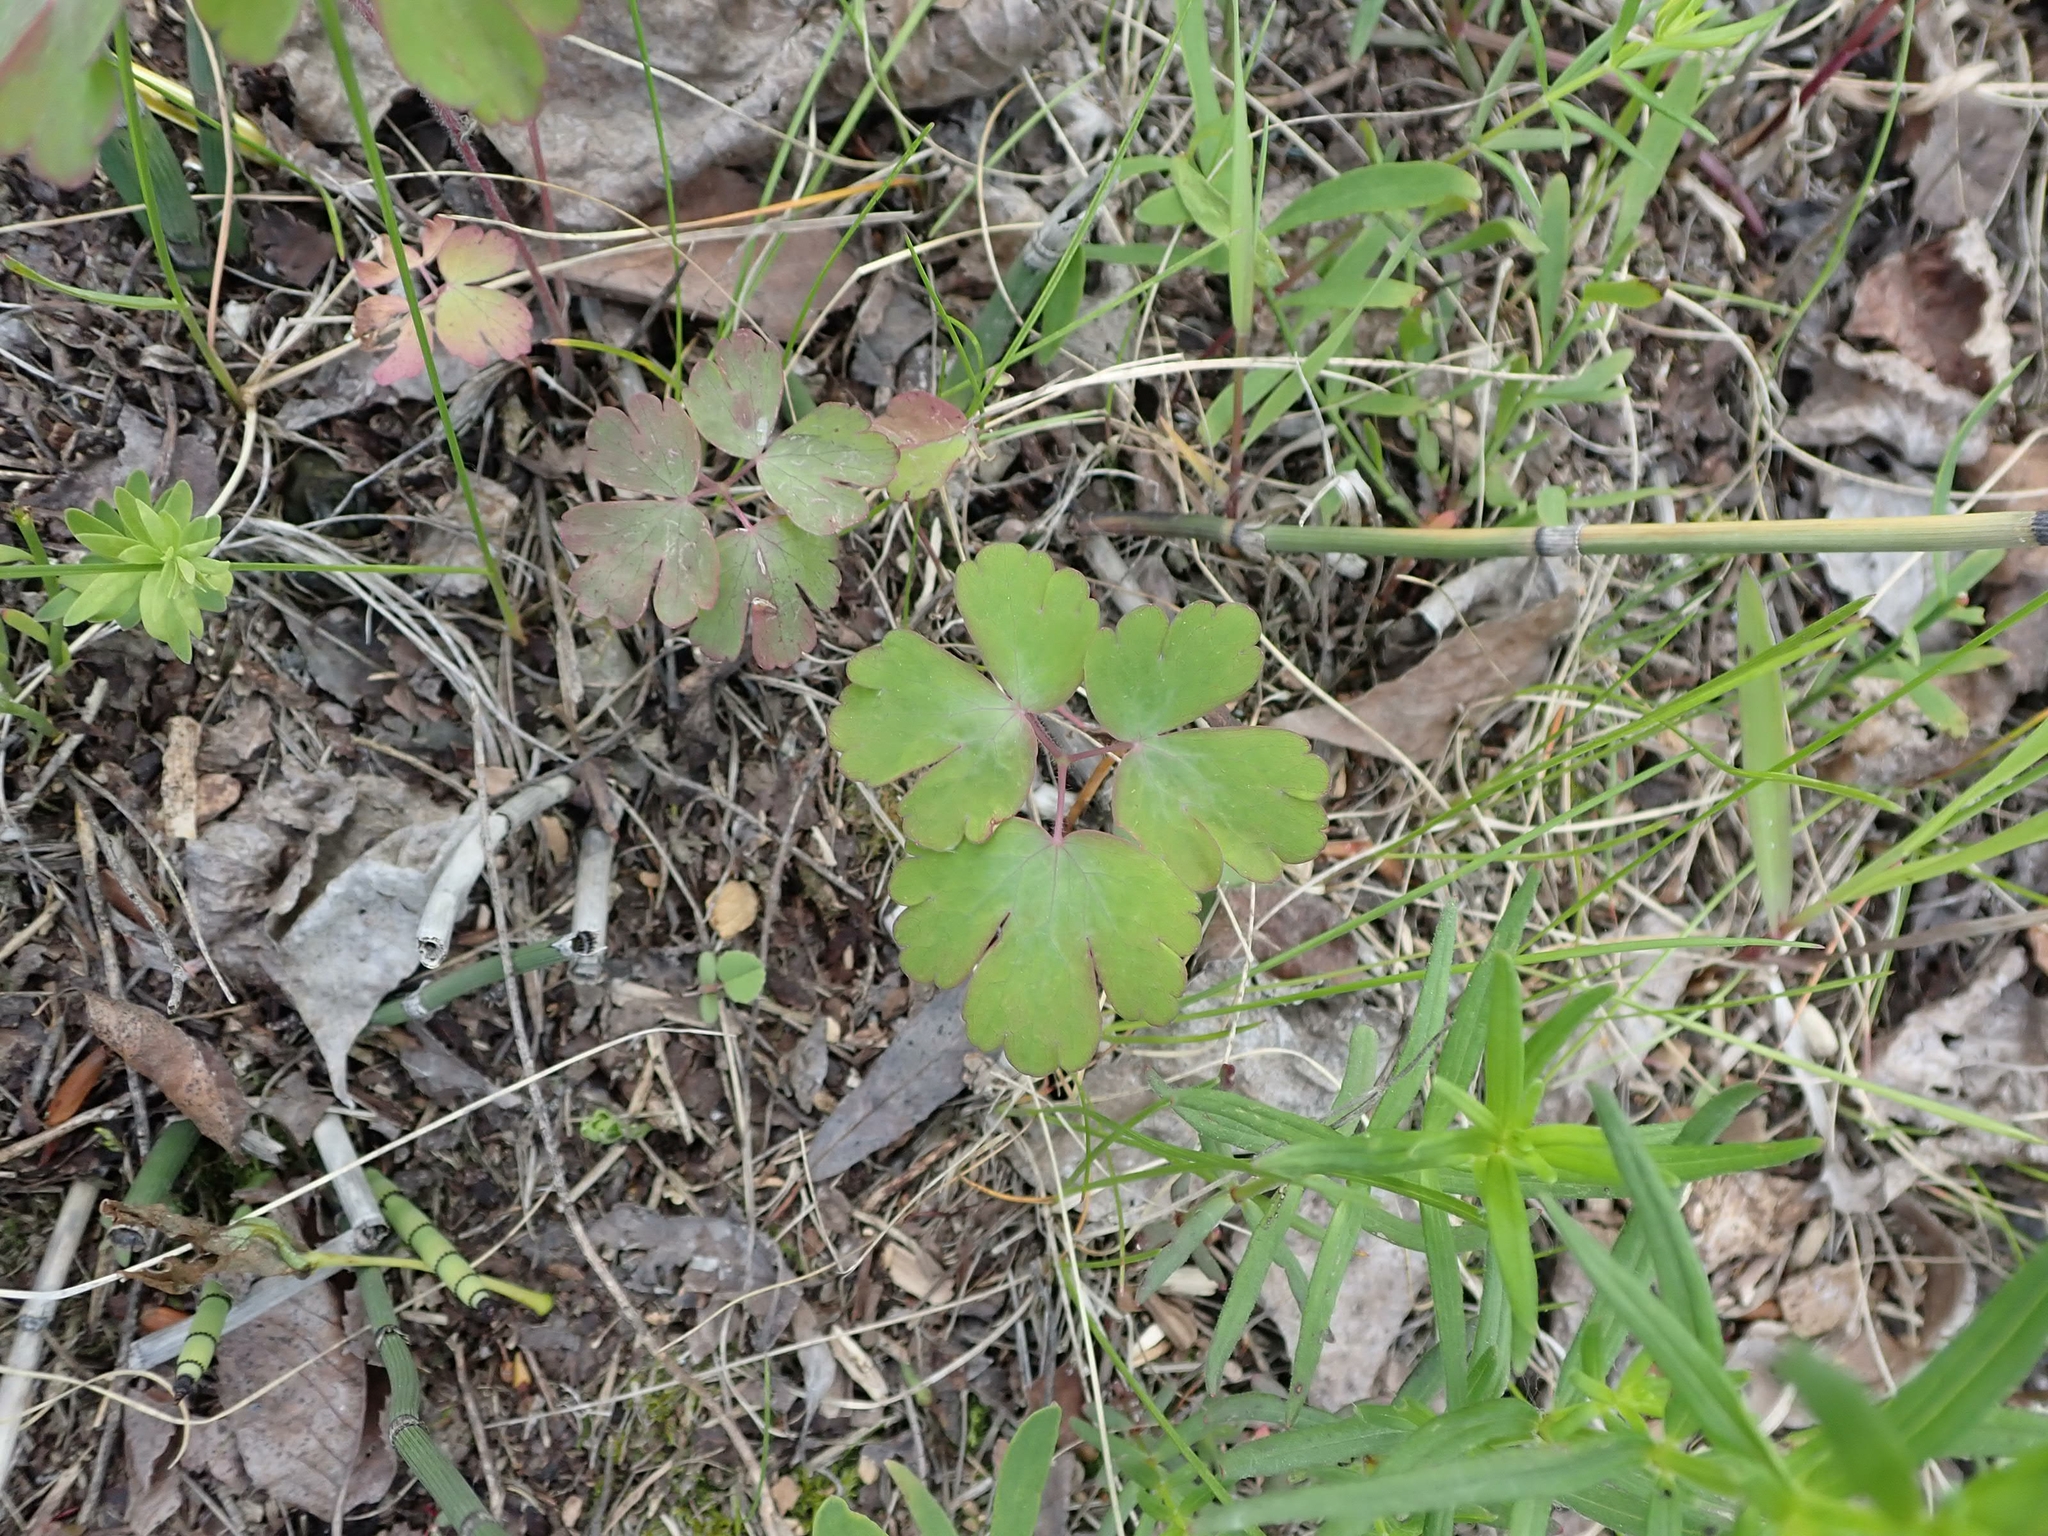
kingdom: Plantae
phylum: Tracheophyta
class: Magnoliopsida
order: Ranunculales
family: Ranunculaceae
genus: Aquilegia
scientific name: Aquilegia canadensis
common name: American columbine
